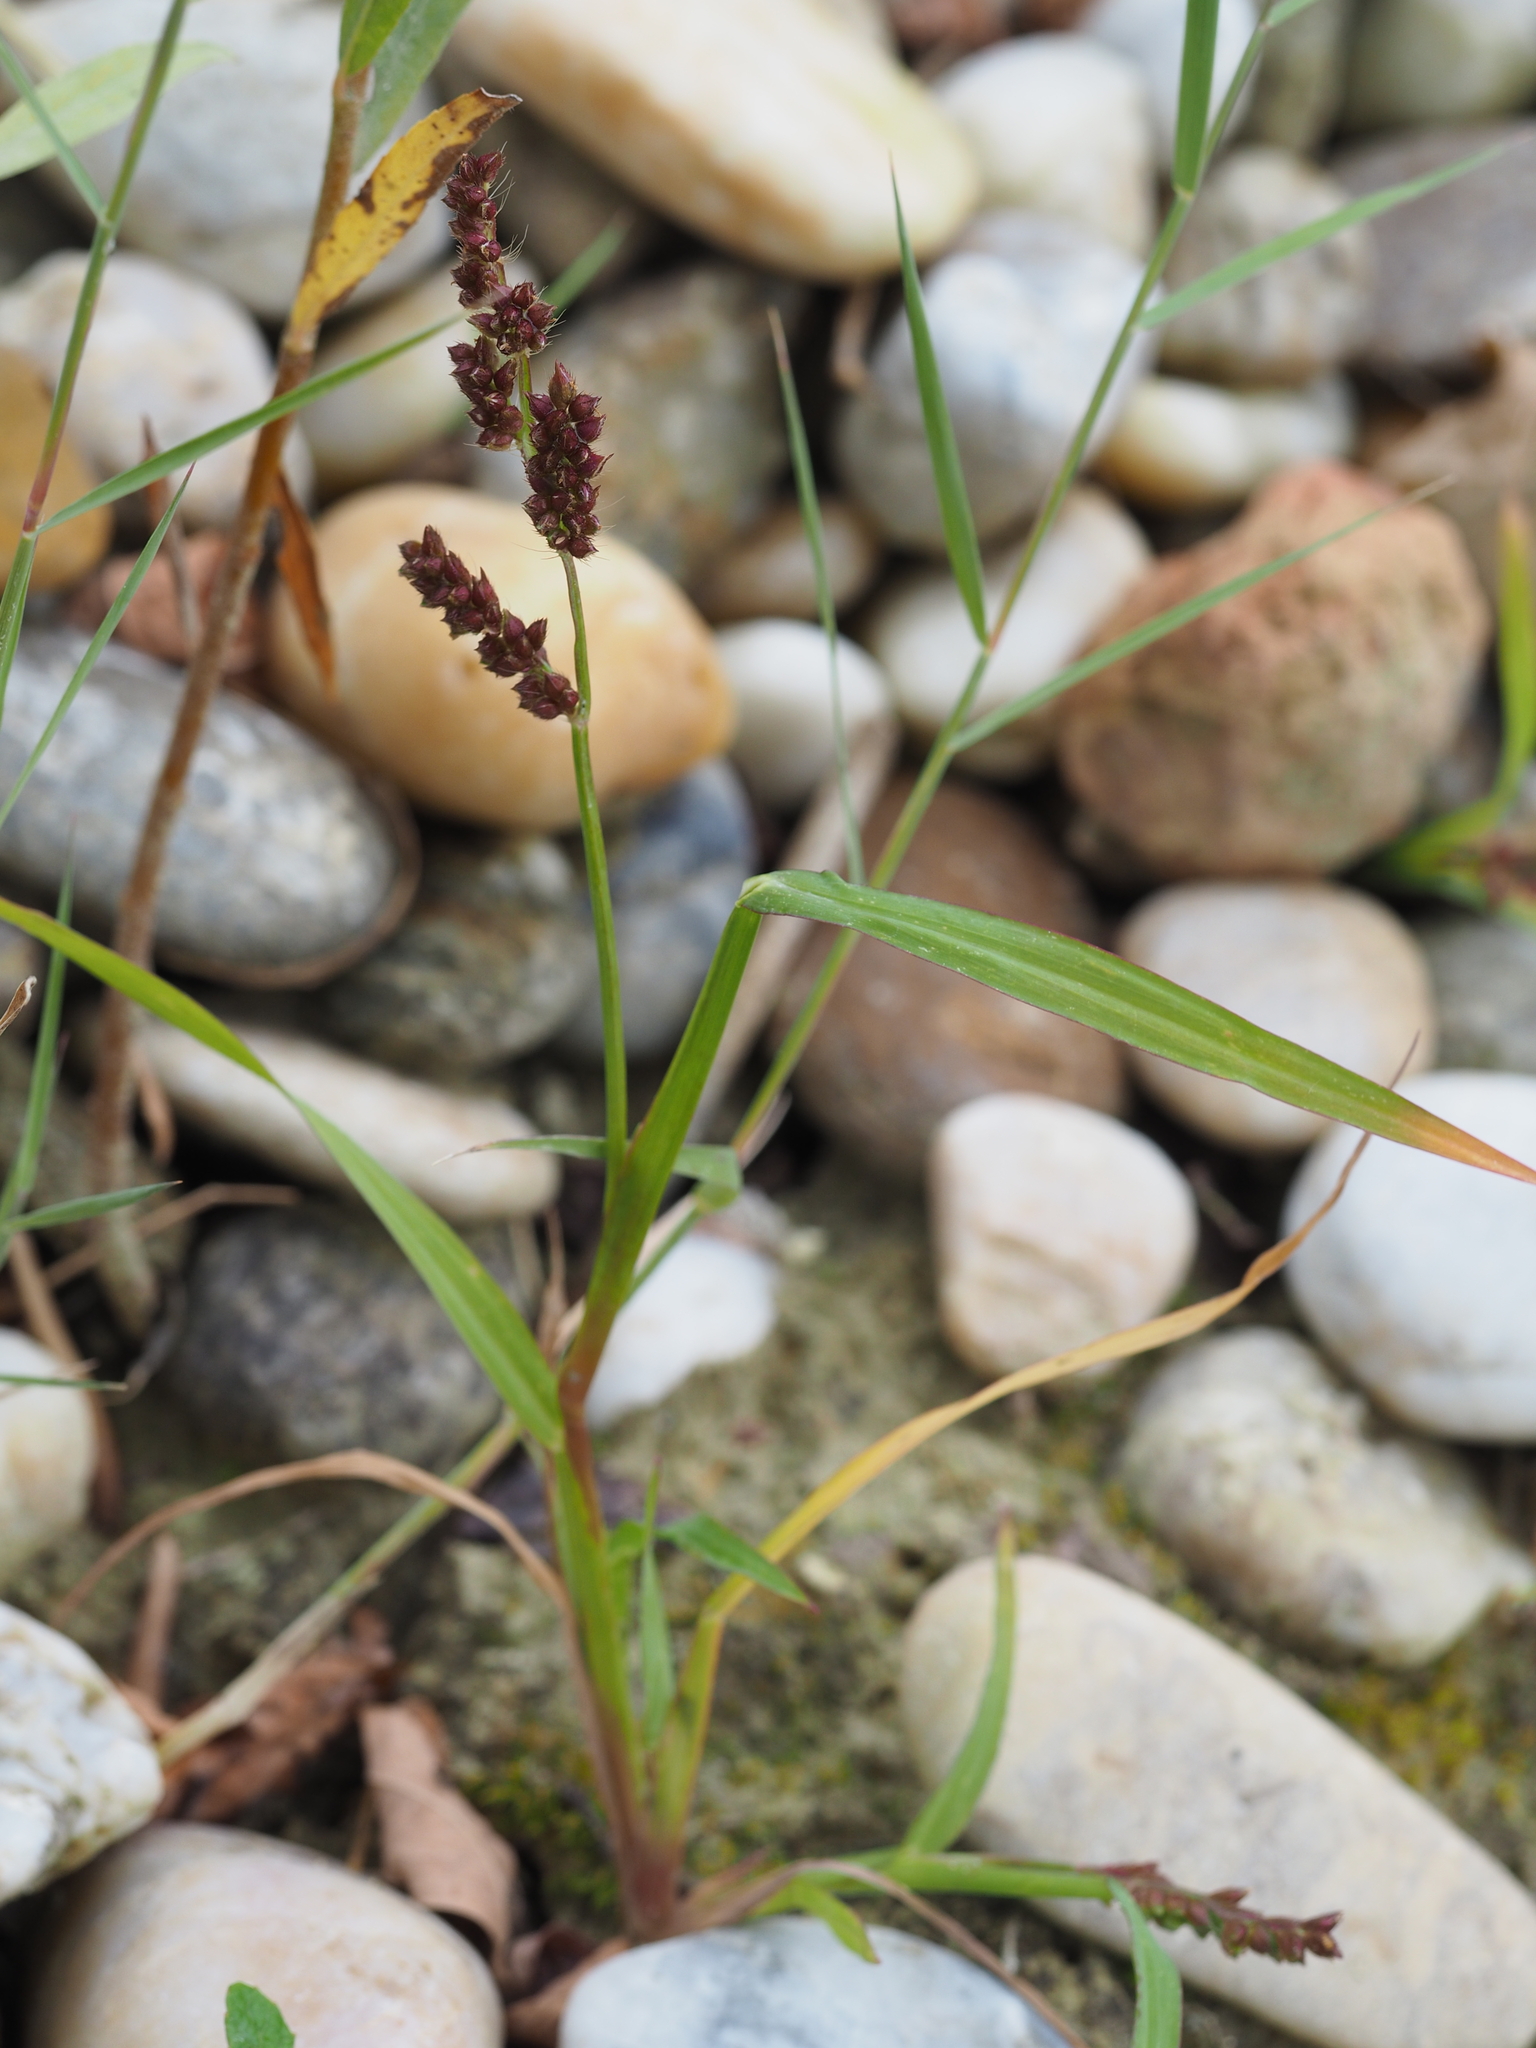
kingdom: Plantae
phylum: Tracheophyta
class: Liliopsida
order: Poales
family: Poaceae
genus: Echinochloa
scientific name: Echinochloa crus-galli
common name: Cockspur
